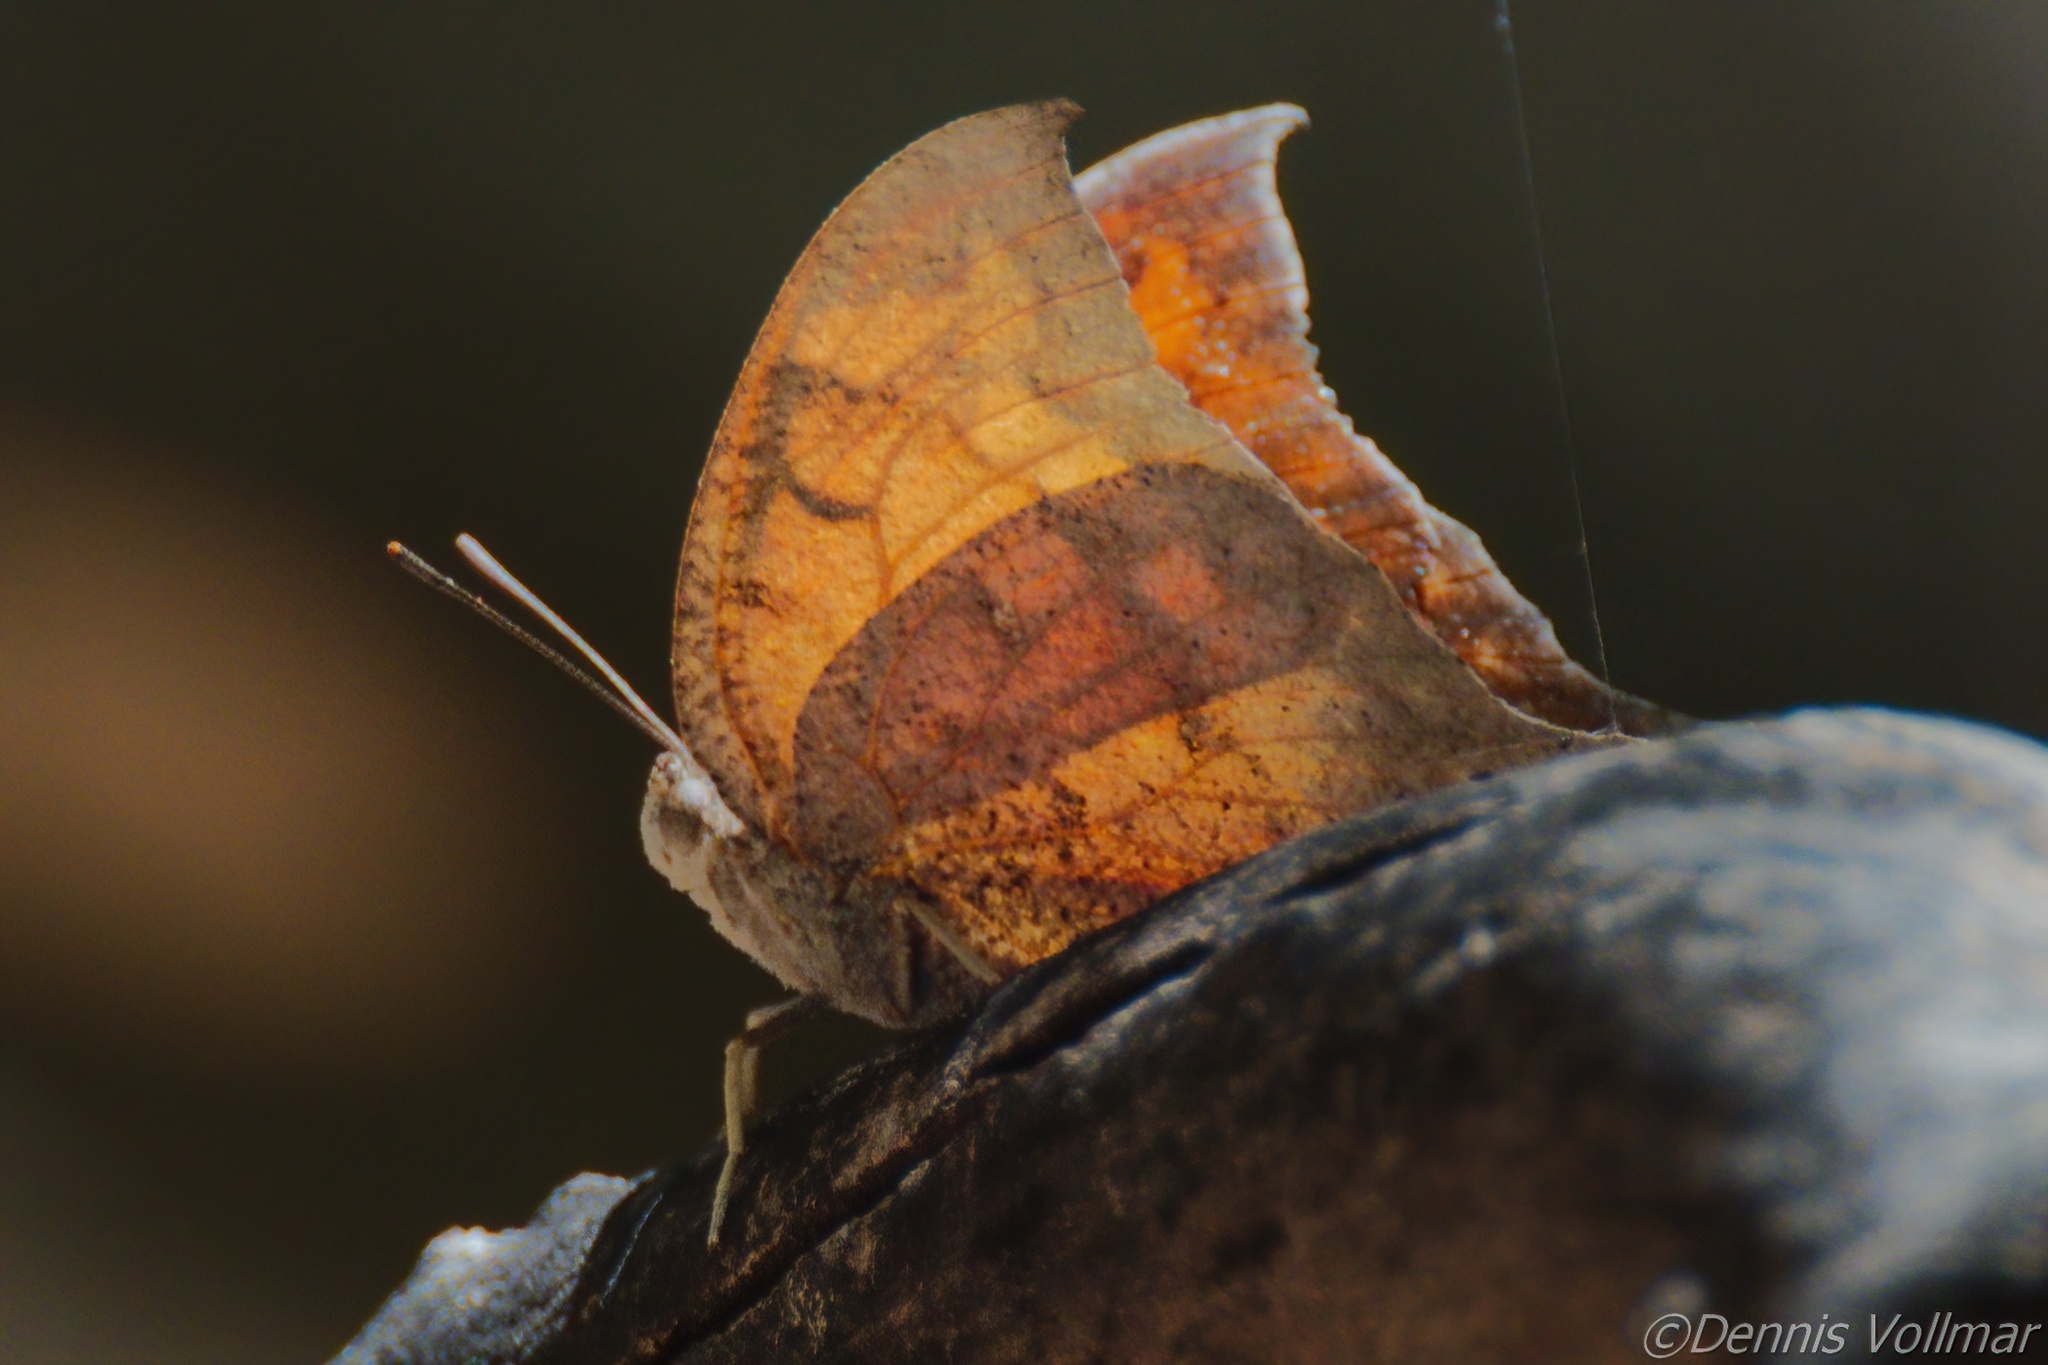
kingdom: Animalia
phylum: Arthropoda
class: Insecta
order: Lepidoptera
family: Nymphalidae
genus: Anaea
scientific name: Anaea aidea
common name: Tropical leafwing
